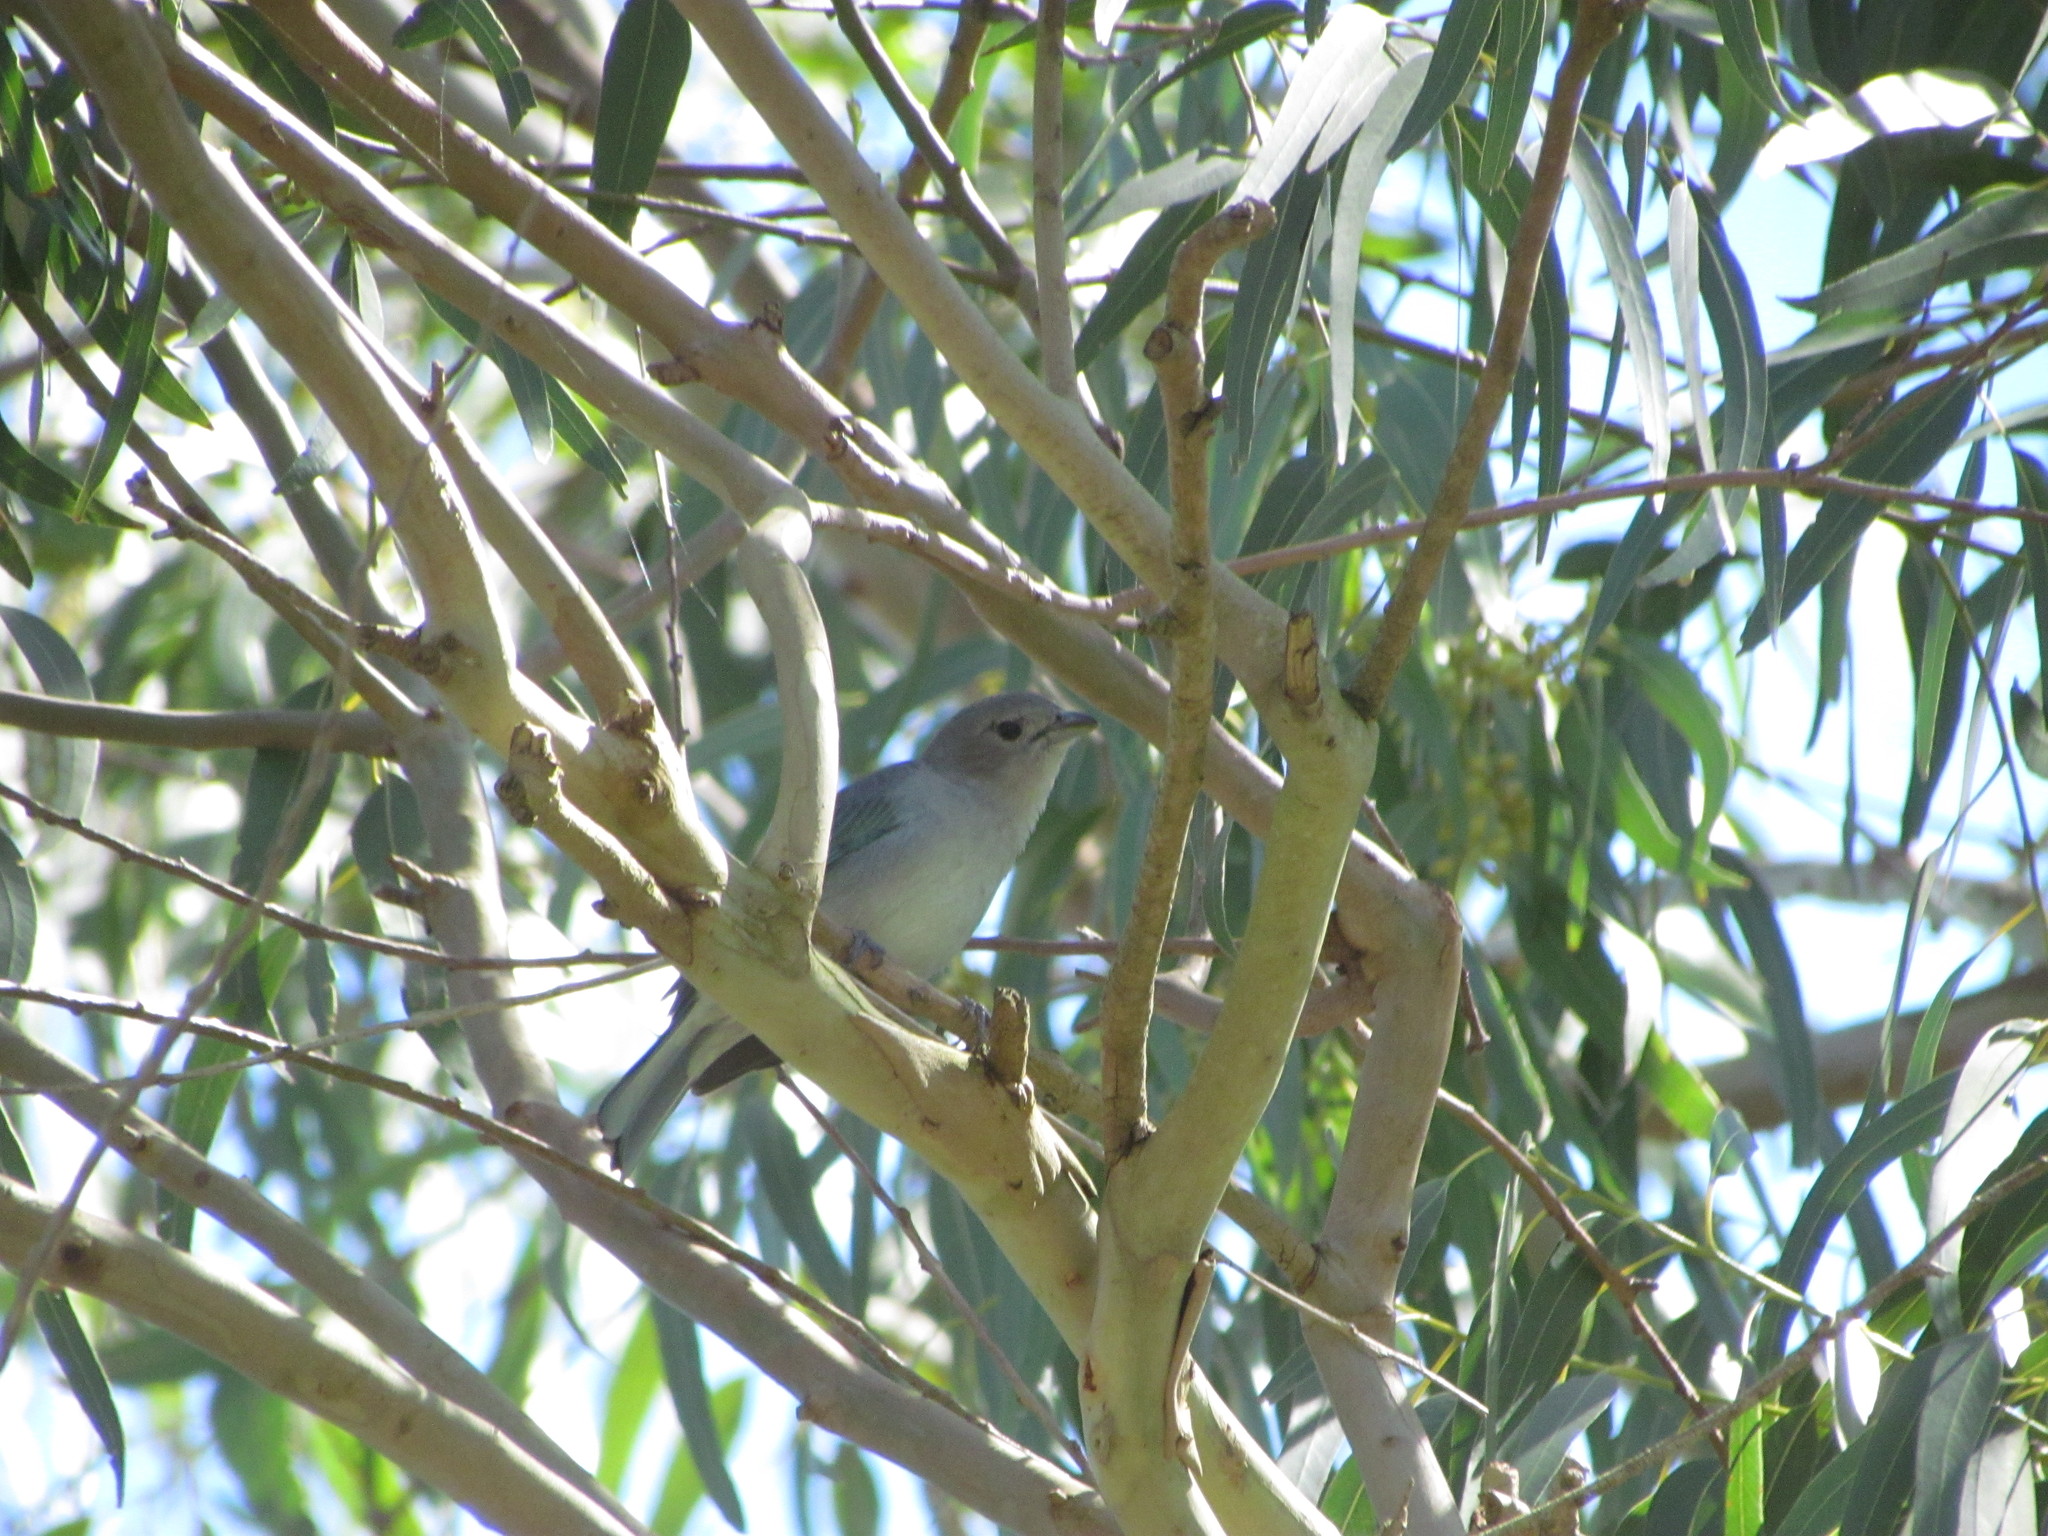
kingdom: Animalia
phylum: Chordata
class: Aves
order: Passeriformes
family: Thraupidae
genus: Thraupis
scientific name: Thraupis sayaca
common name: Sayaca tanager
